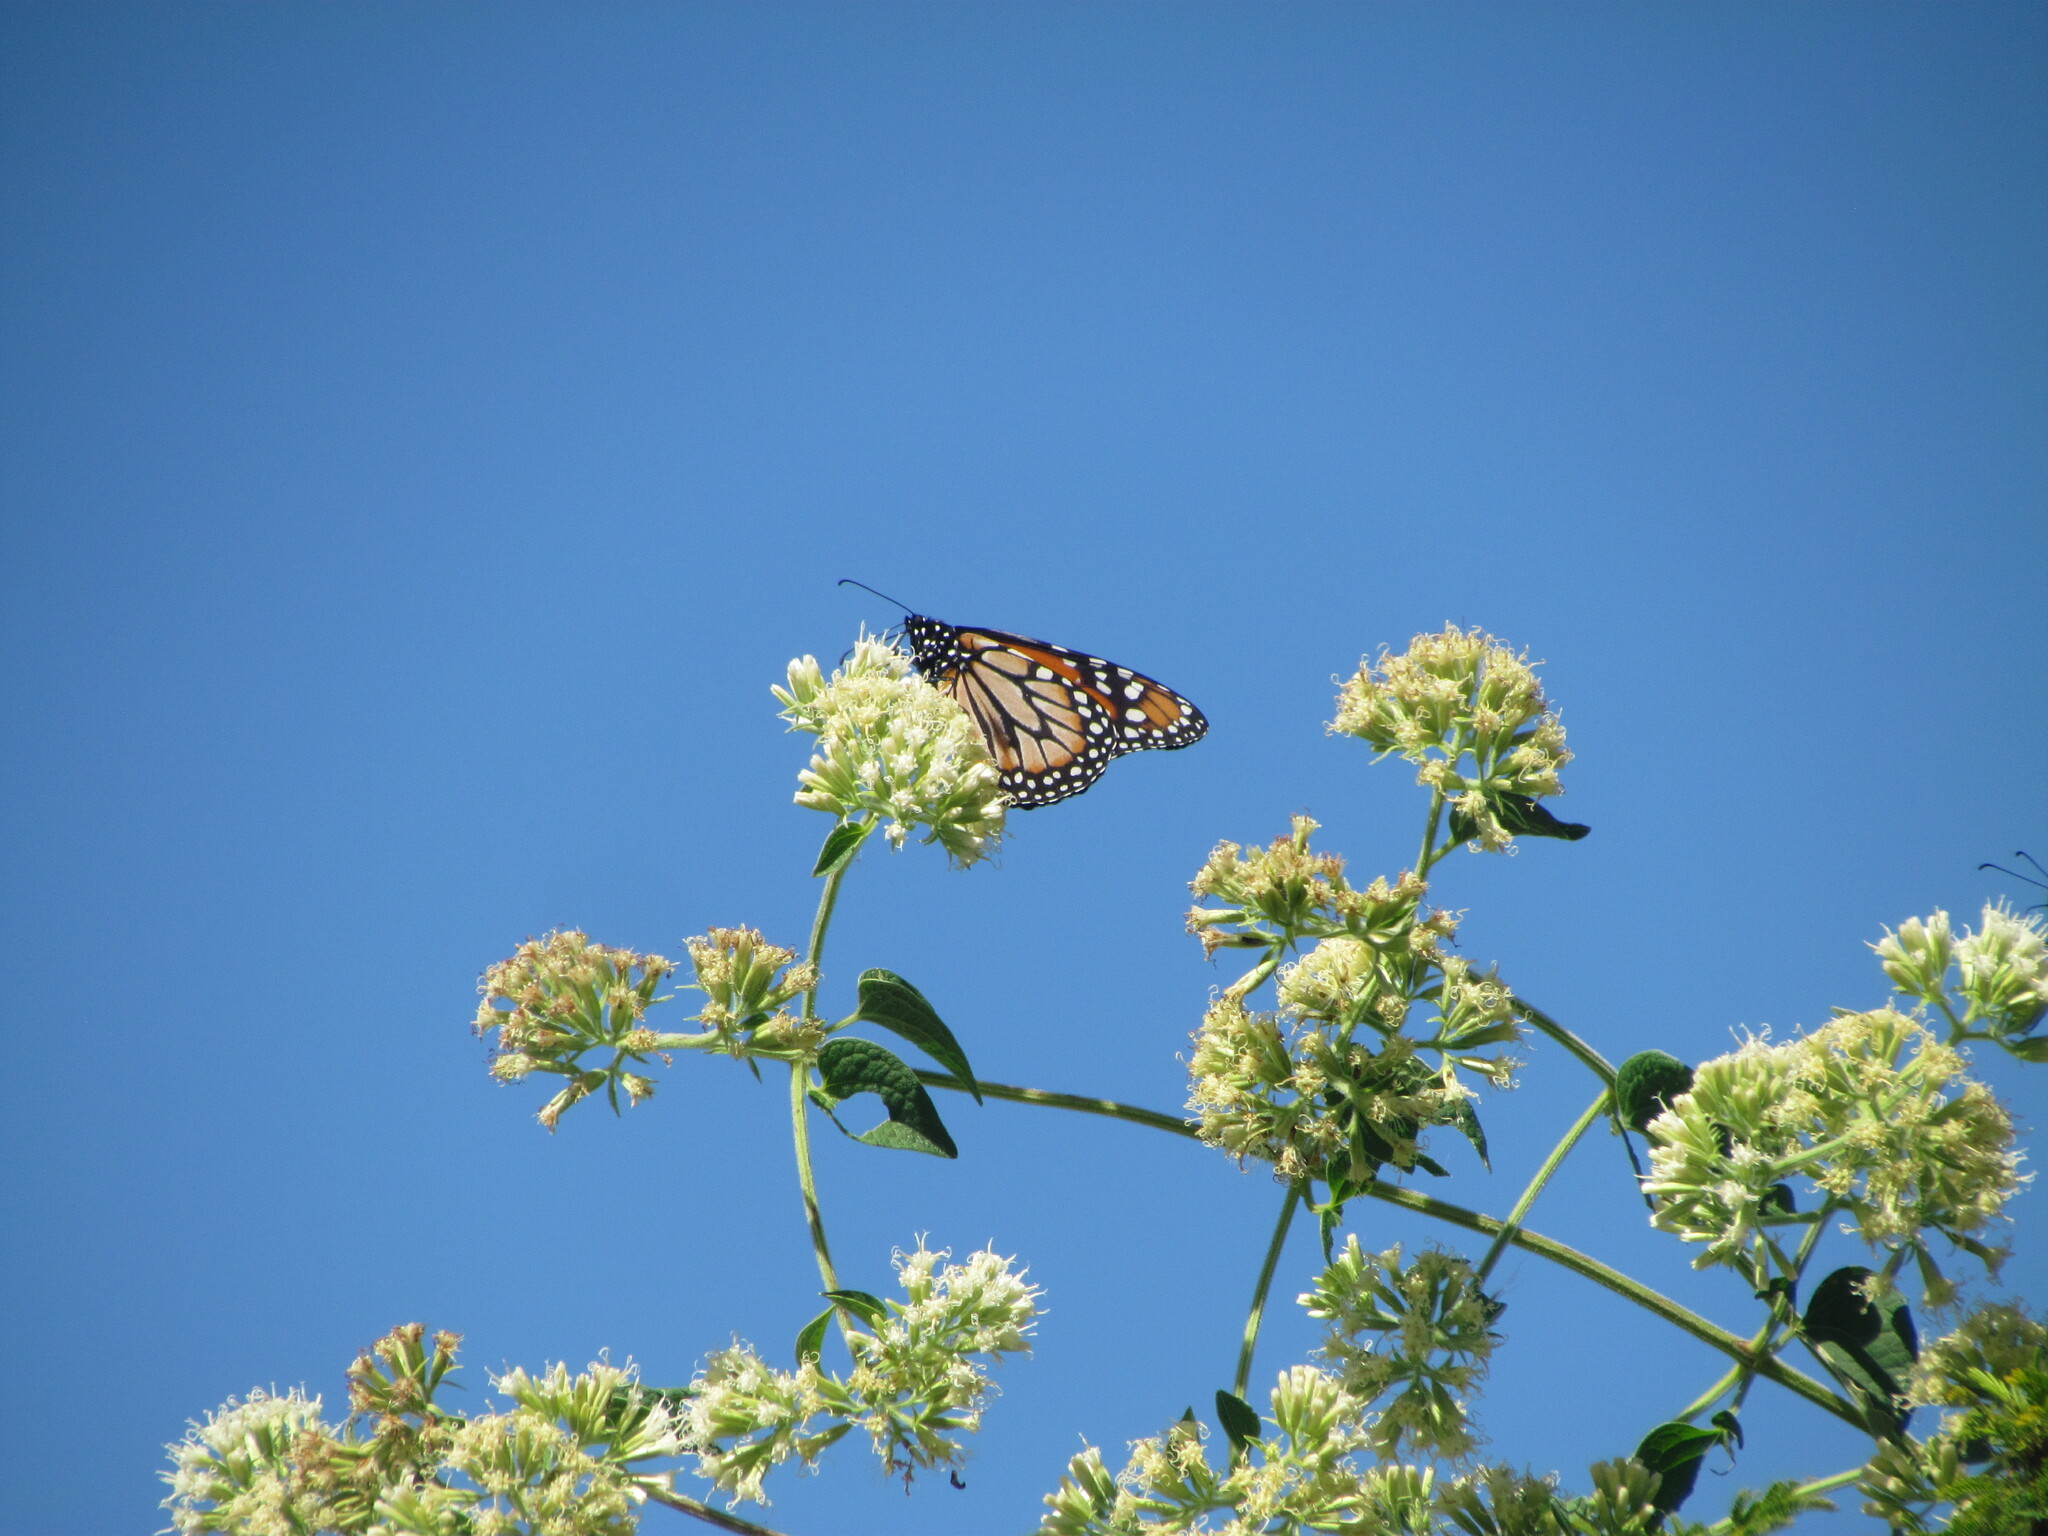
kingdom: Animalia
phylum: Arthropoda
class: Insecta
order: Lepidoptera
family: Nymphalidae
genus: Danaus
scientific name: Danaus erippus
